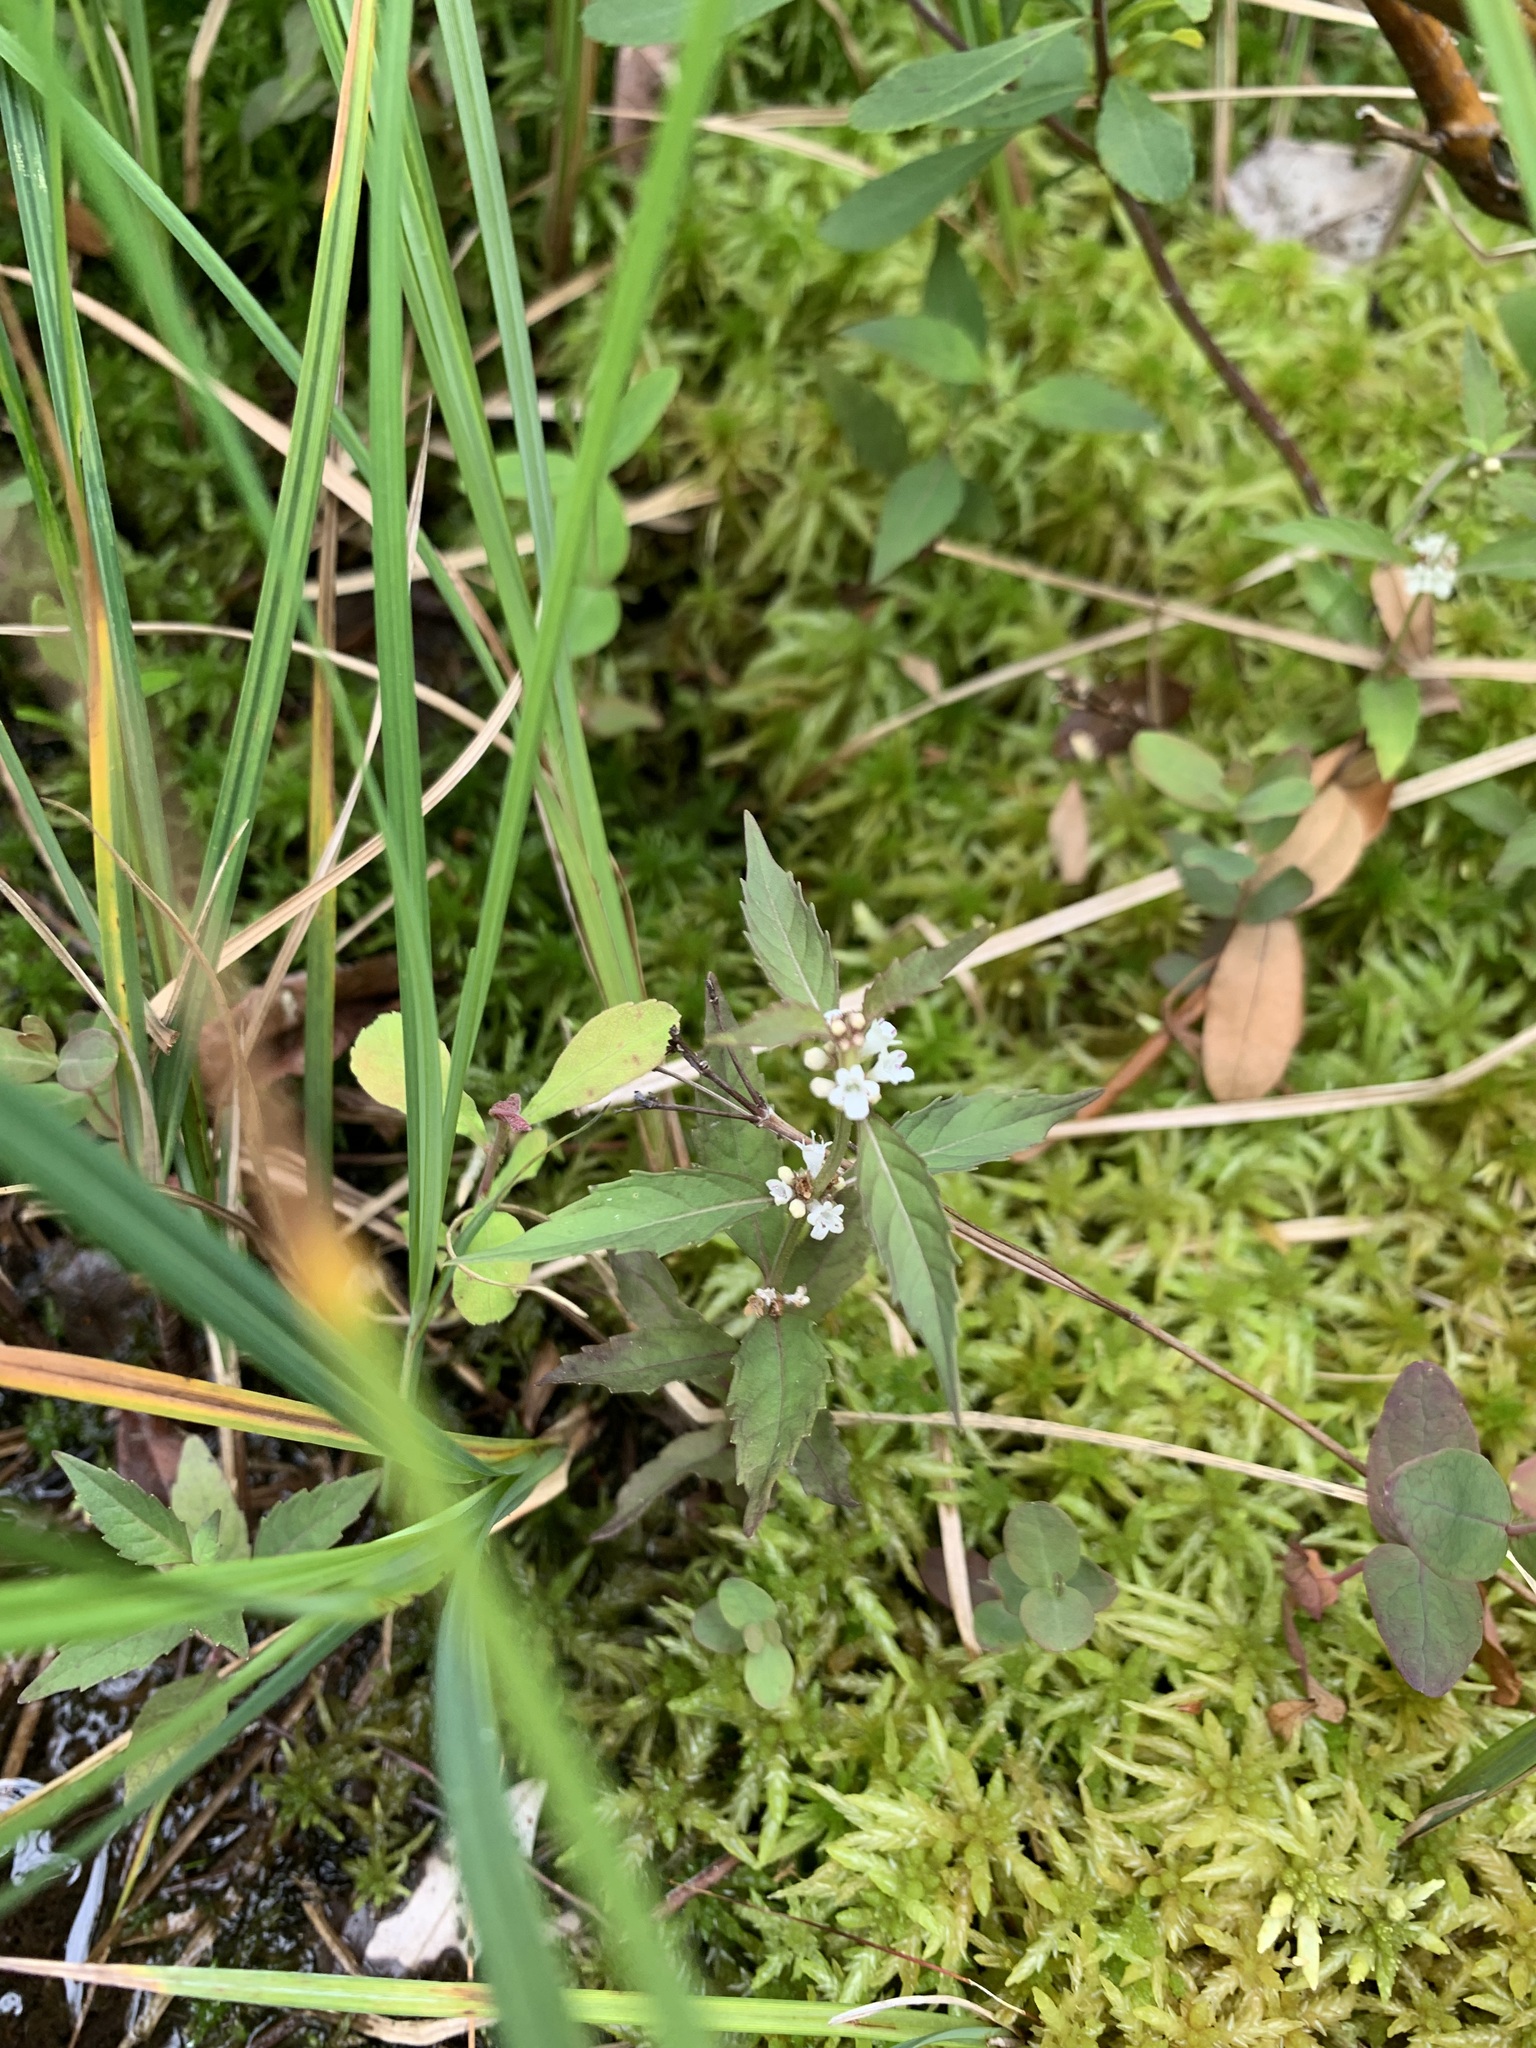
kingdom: Plantae
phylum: Tracheophyta
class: Magnoliopsida
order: Lamiales
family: Lamiaceae
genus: Lycopus
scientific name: Lycopus uniflorus
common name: Northern bugleweed
